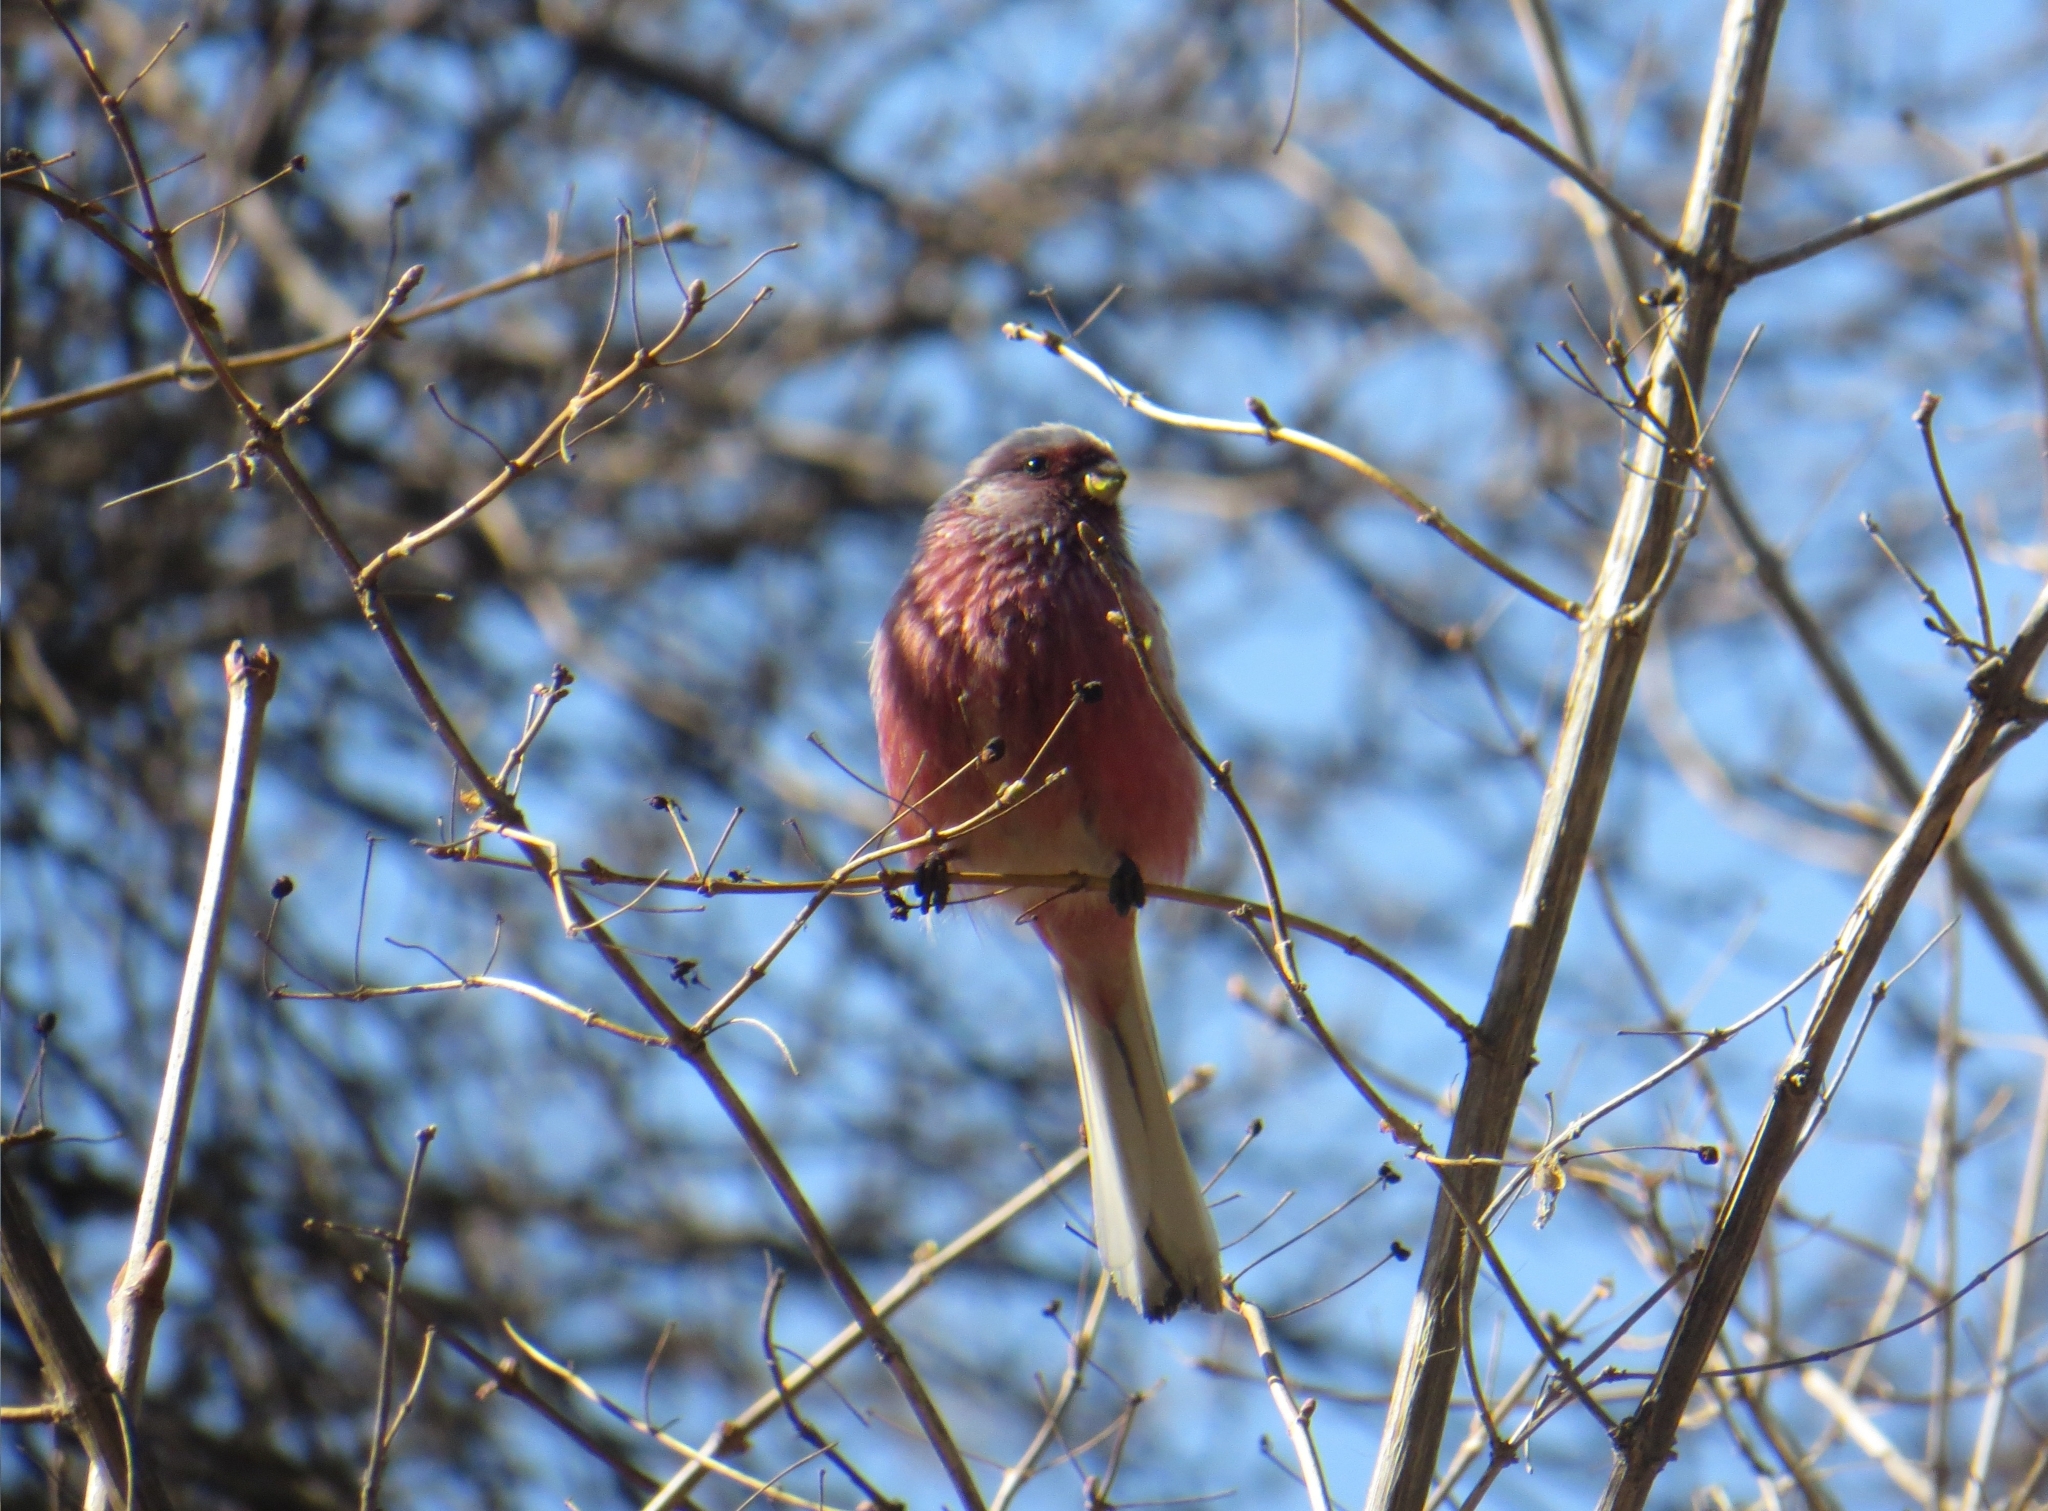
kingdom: Animalia
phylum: Chordata
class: Aves
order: Passeriformes
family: Fringillidae
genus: Carpodacus
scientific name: Carpodacus sibiricus
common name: Long-tailed rosefinch
